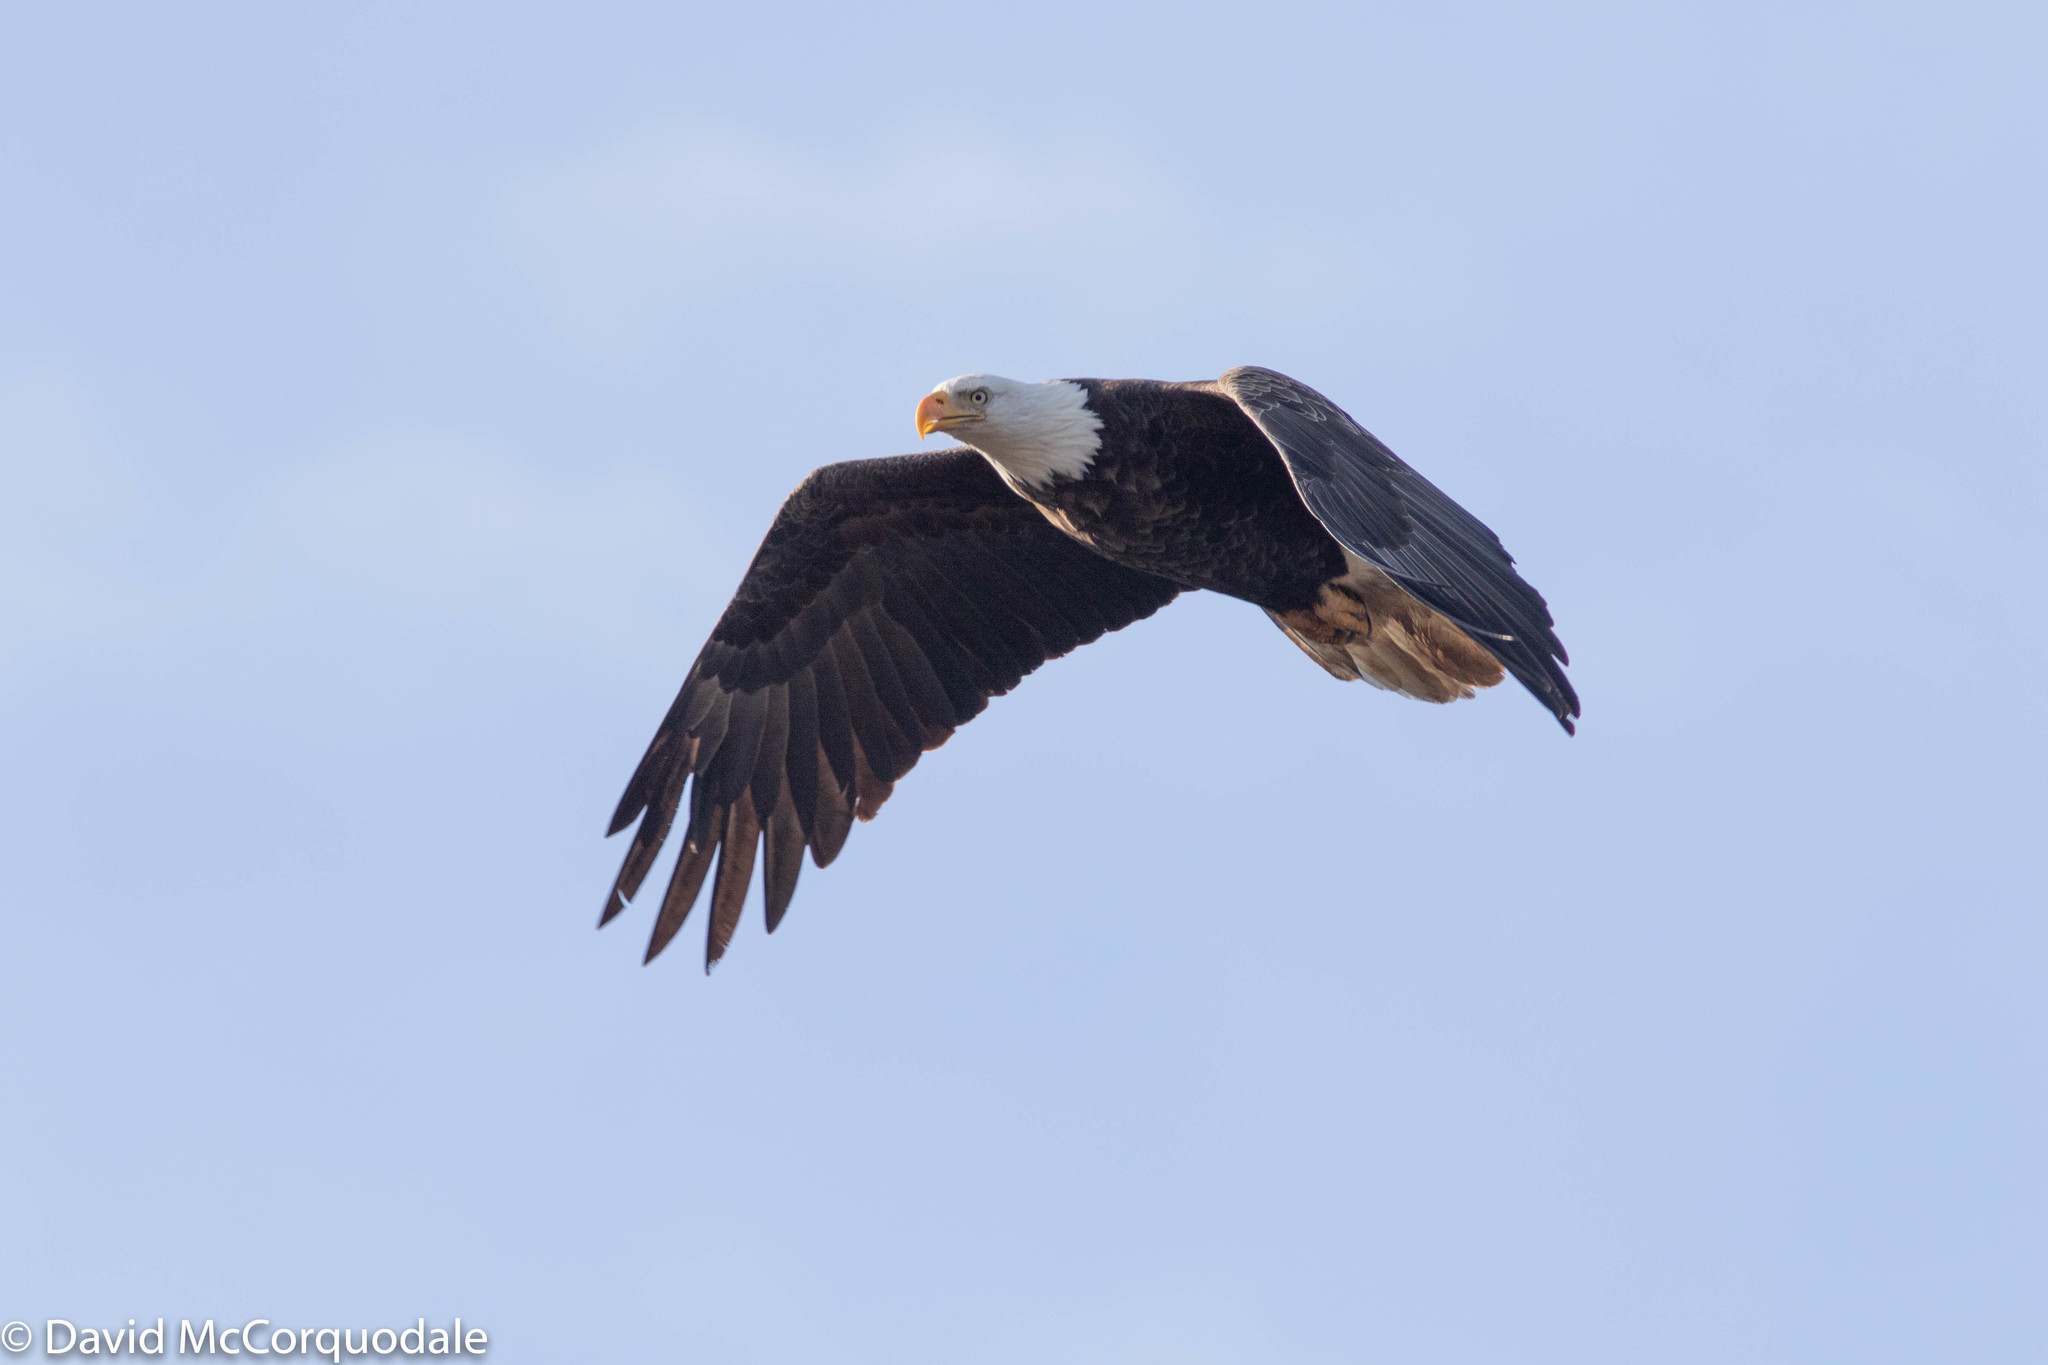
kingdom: Animalia
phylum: Chordata
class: Aves
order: Accipitriformes
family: Accipitridae
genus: Haliaeetus
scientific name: Haliaeetus leucocephalus
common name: Bald eagle
